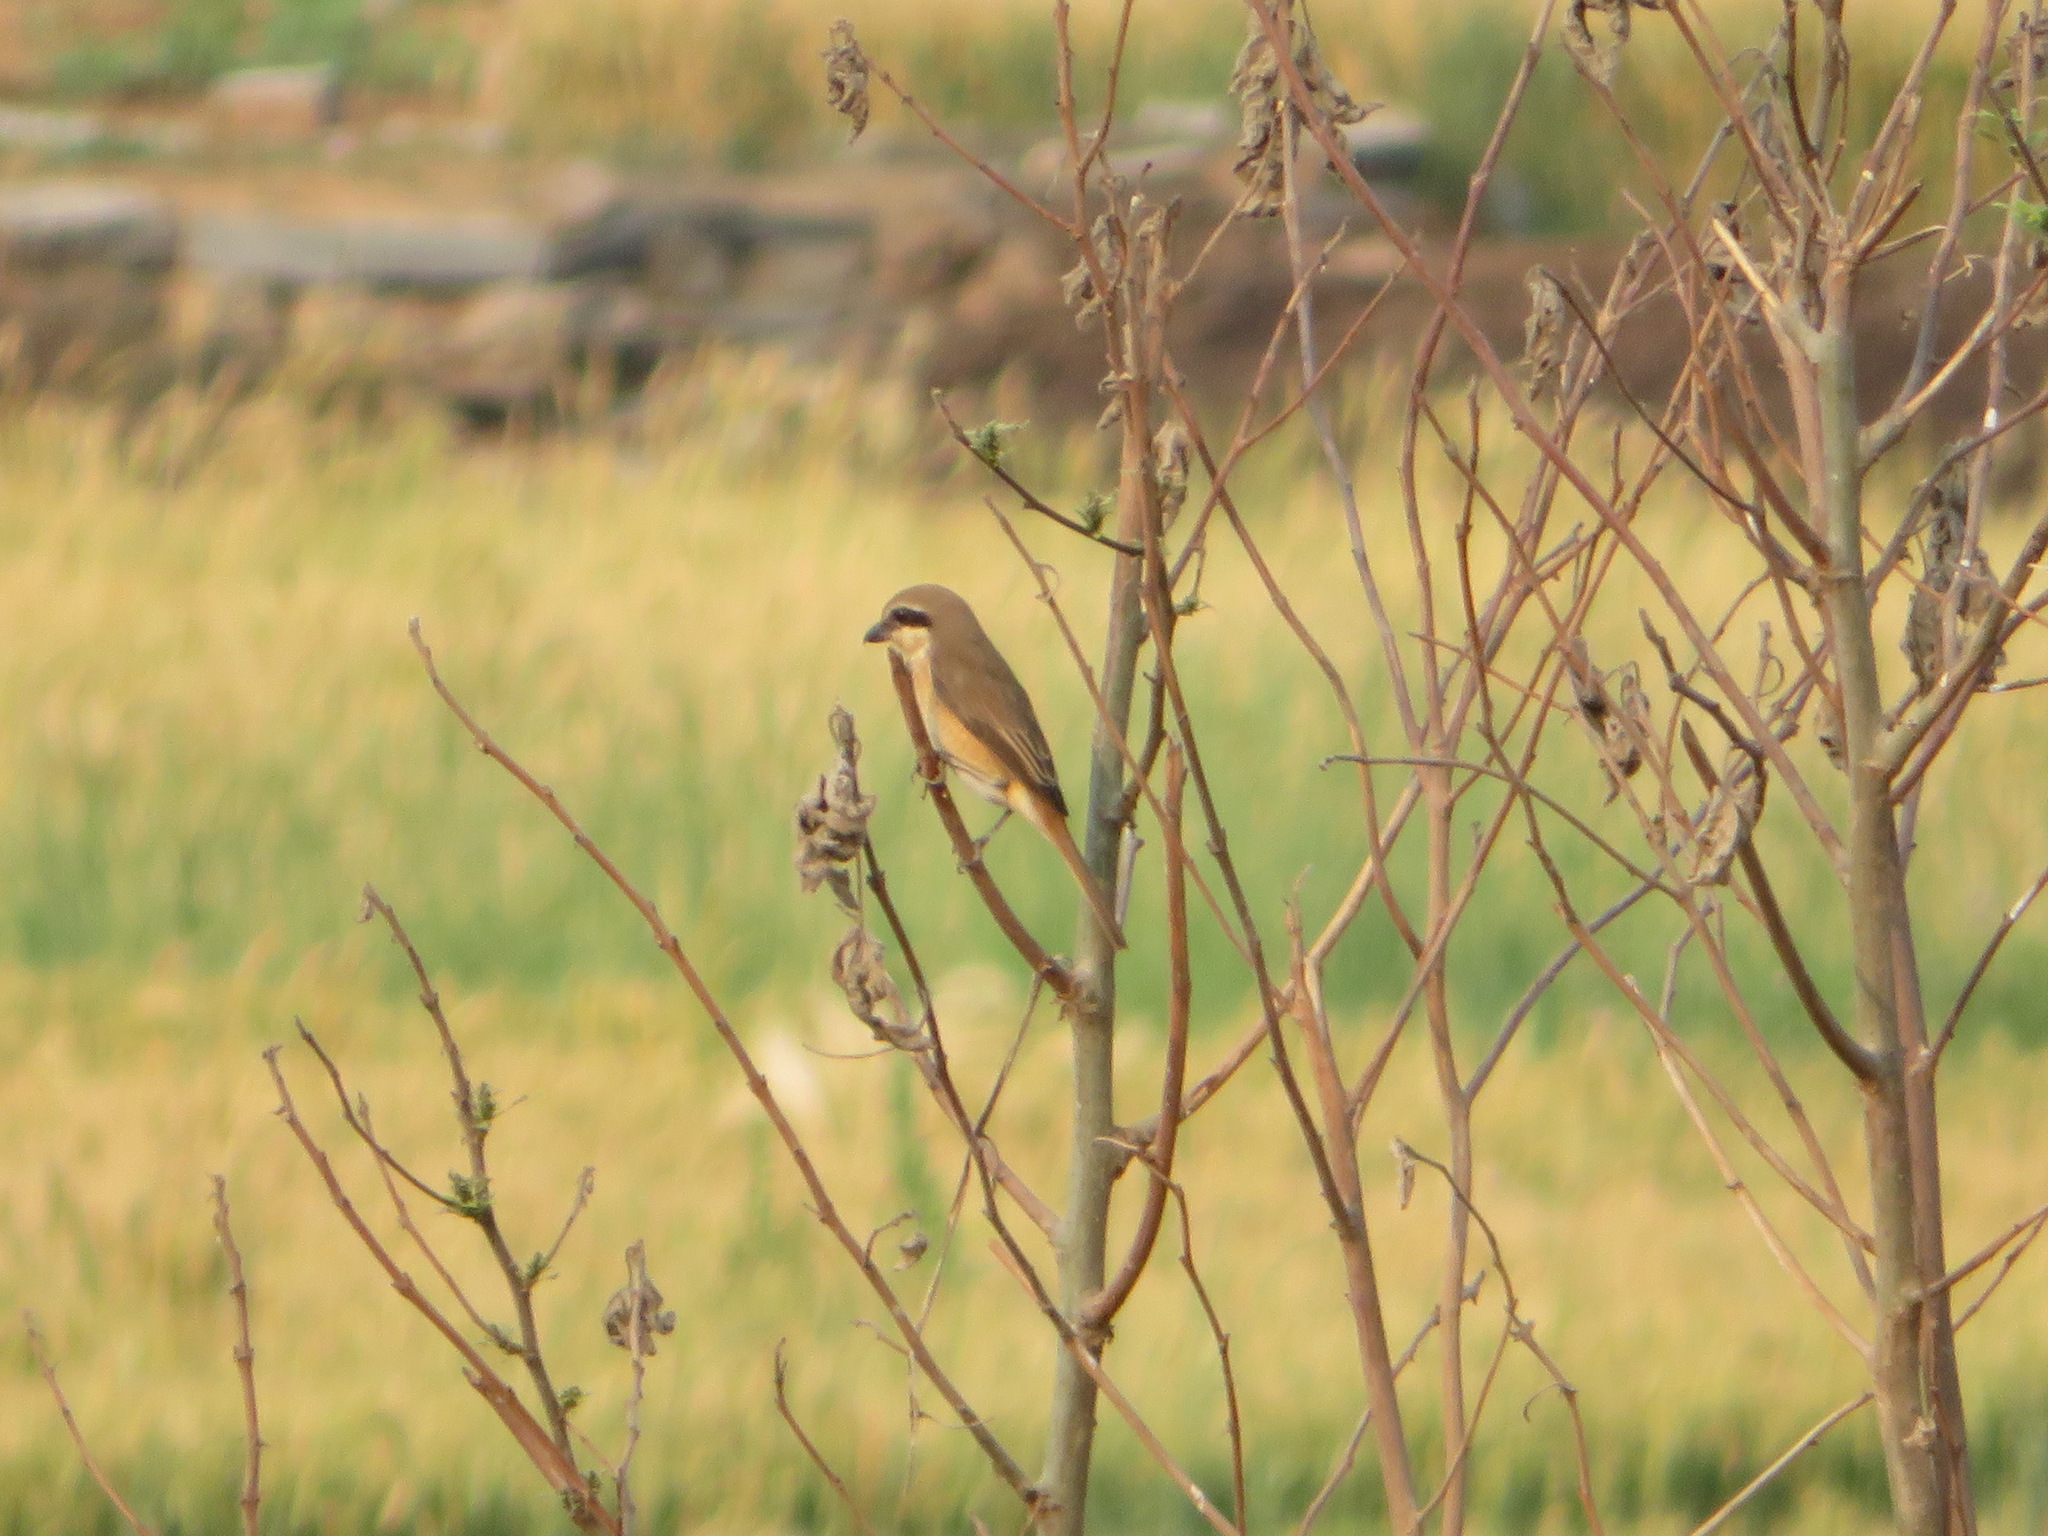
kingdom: Animalia
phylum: Chordata
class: Aves
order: Passeriformes
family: Laniidae
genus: Lanius
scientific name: Lanius cristatus
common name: Brown shrike
